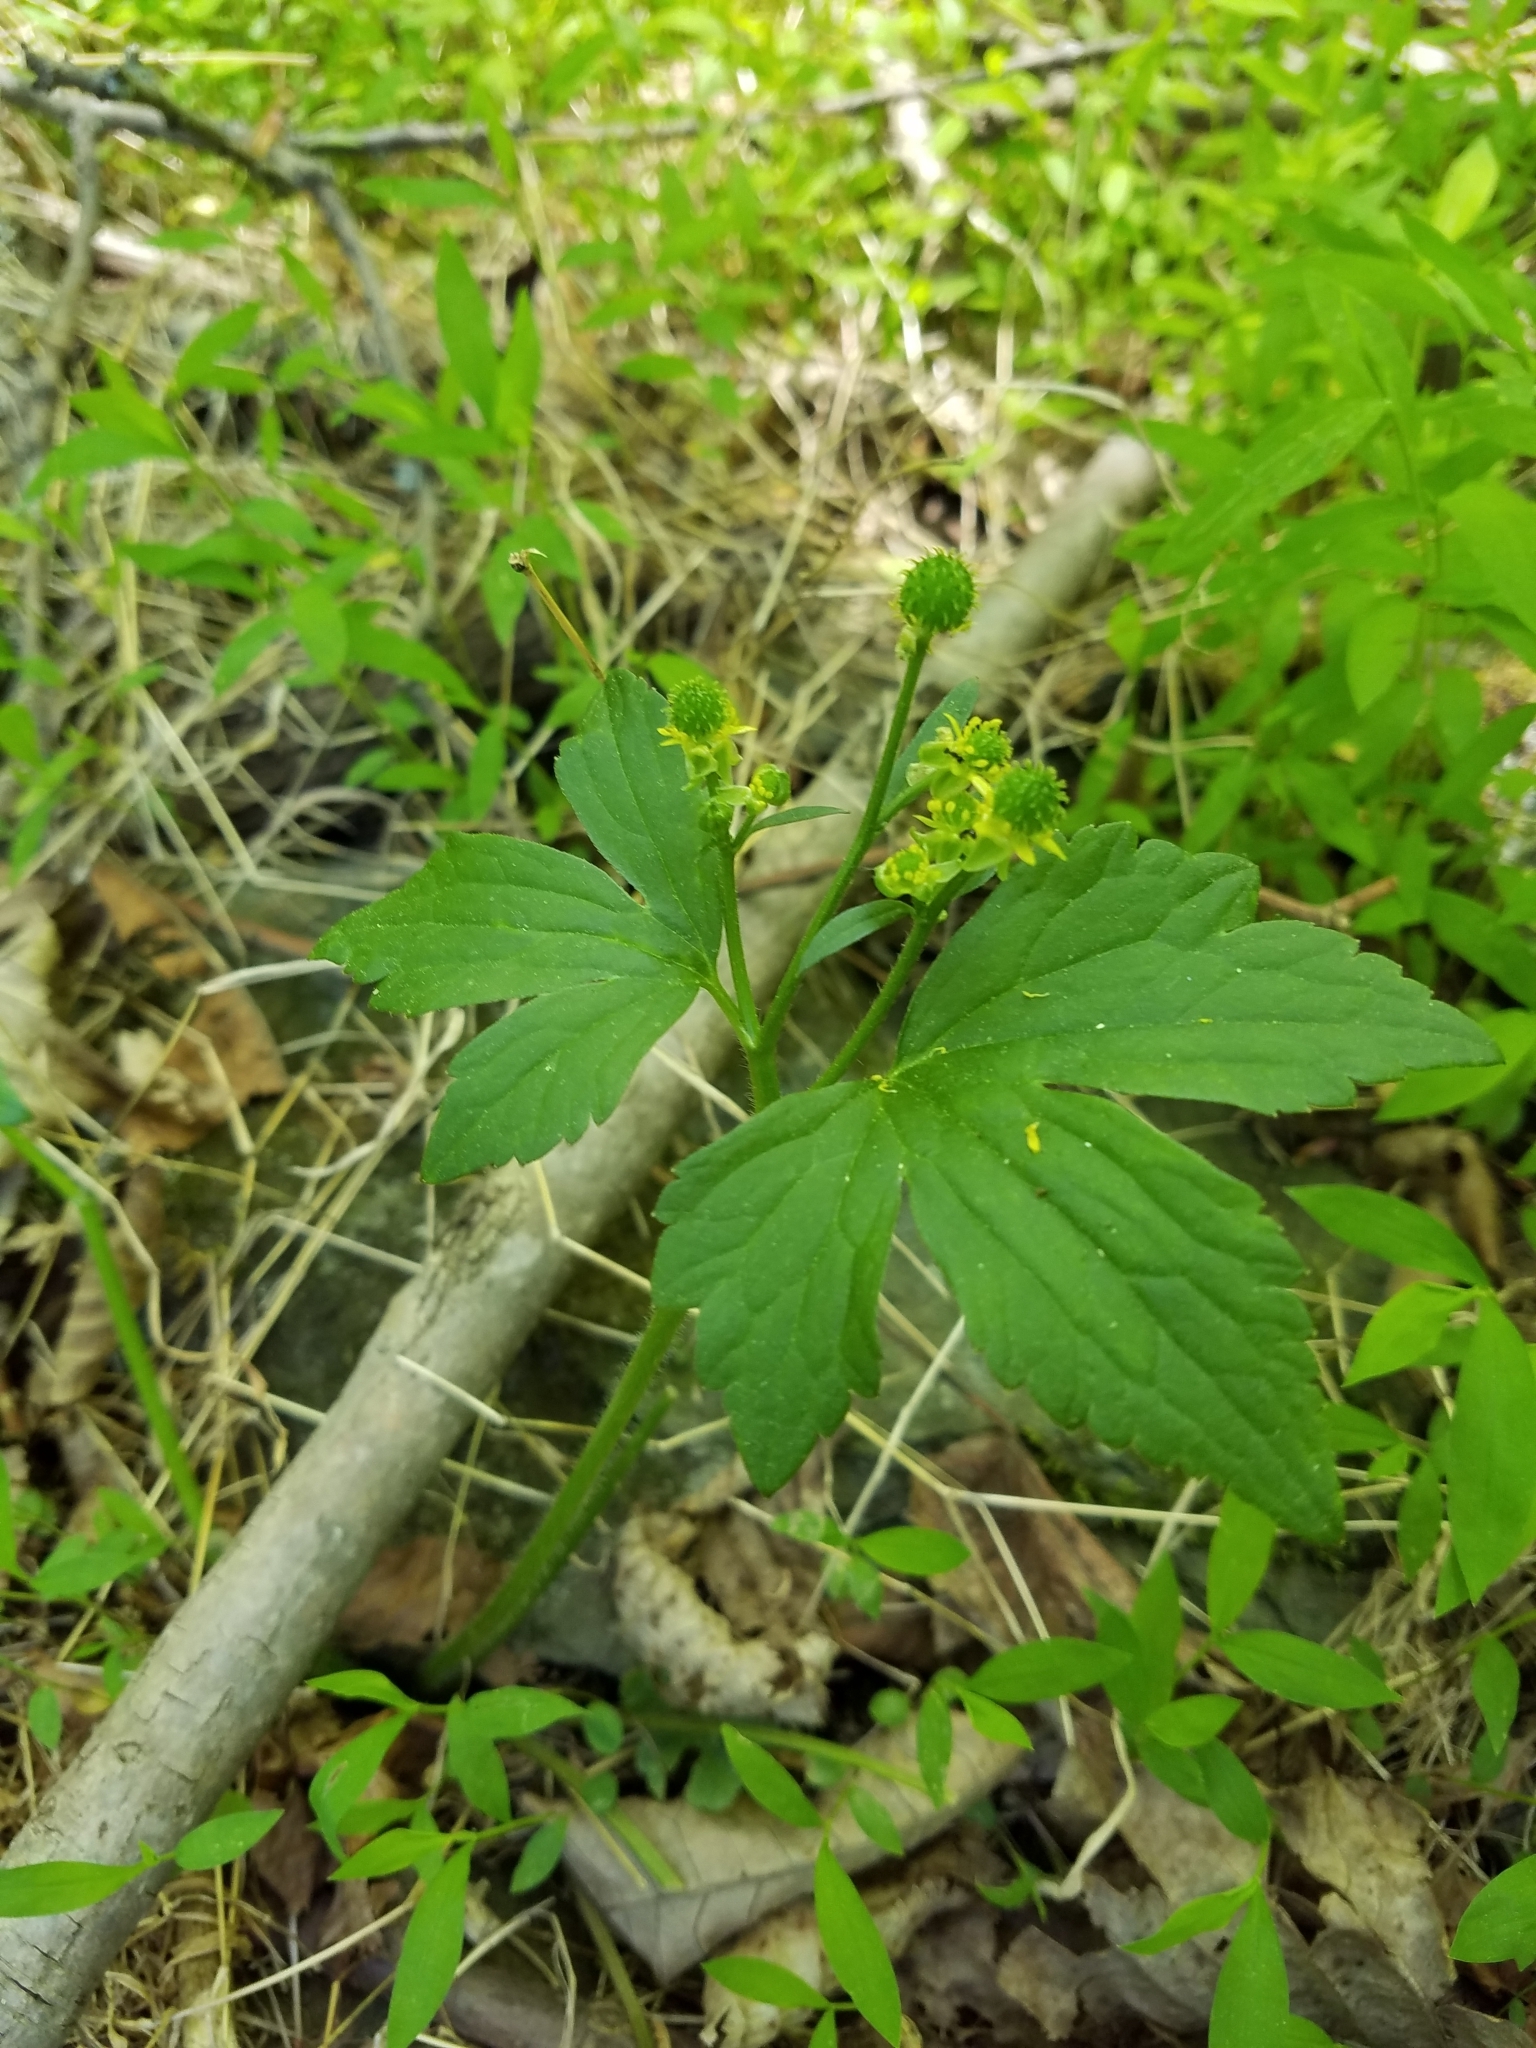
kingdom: Plantae
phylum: Tracheophyta
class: Magnoliopsida
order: Ranunculales
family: Ranunculaceae
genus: Ranunculus
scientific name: Ranunculus recurvatus
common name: Blisterwort
